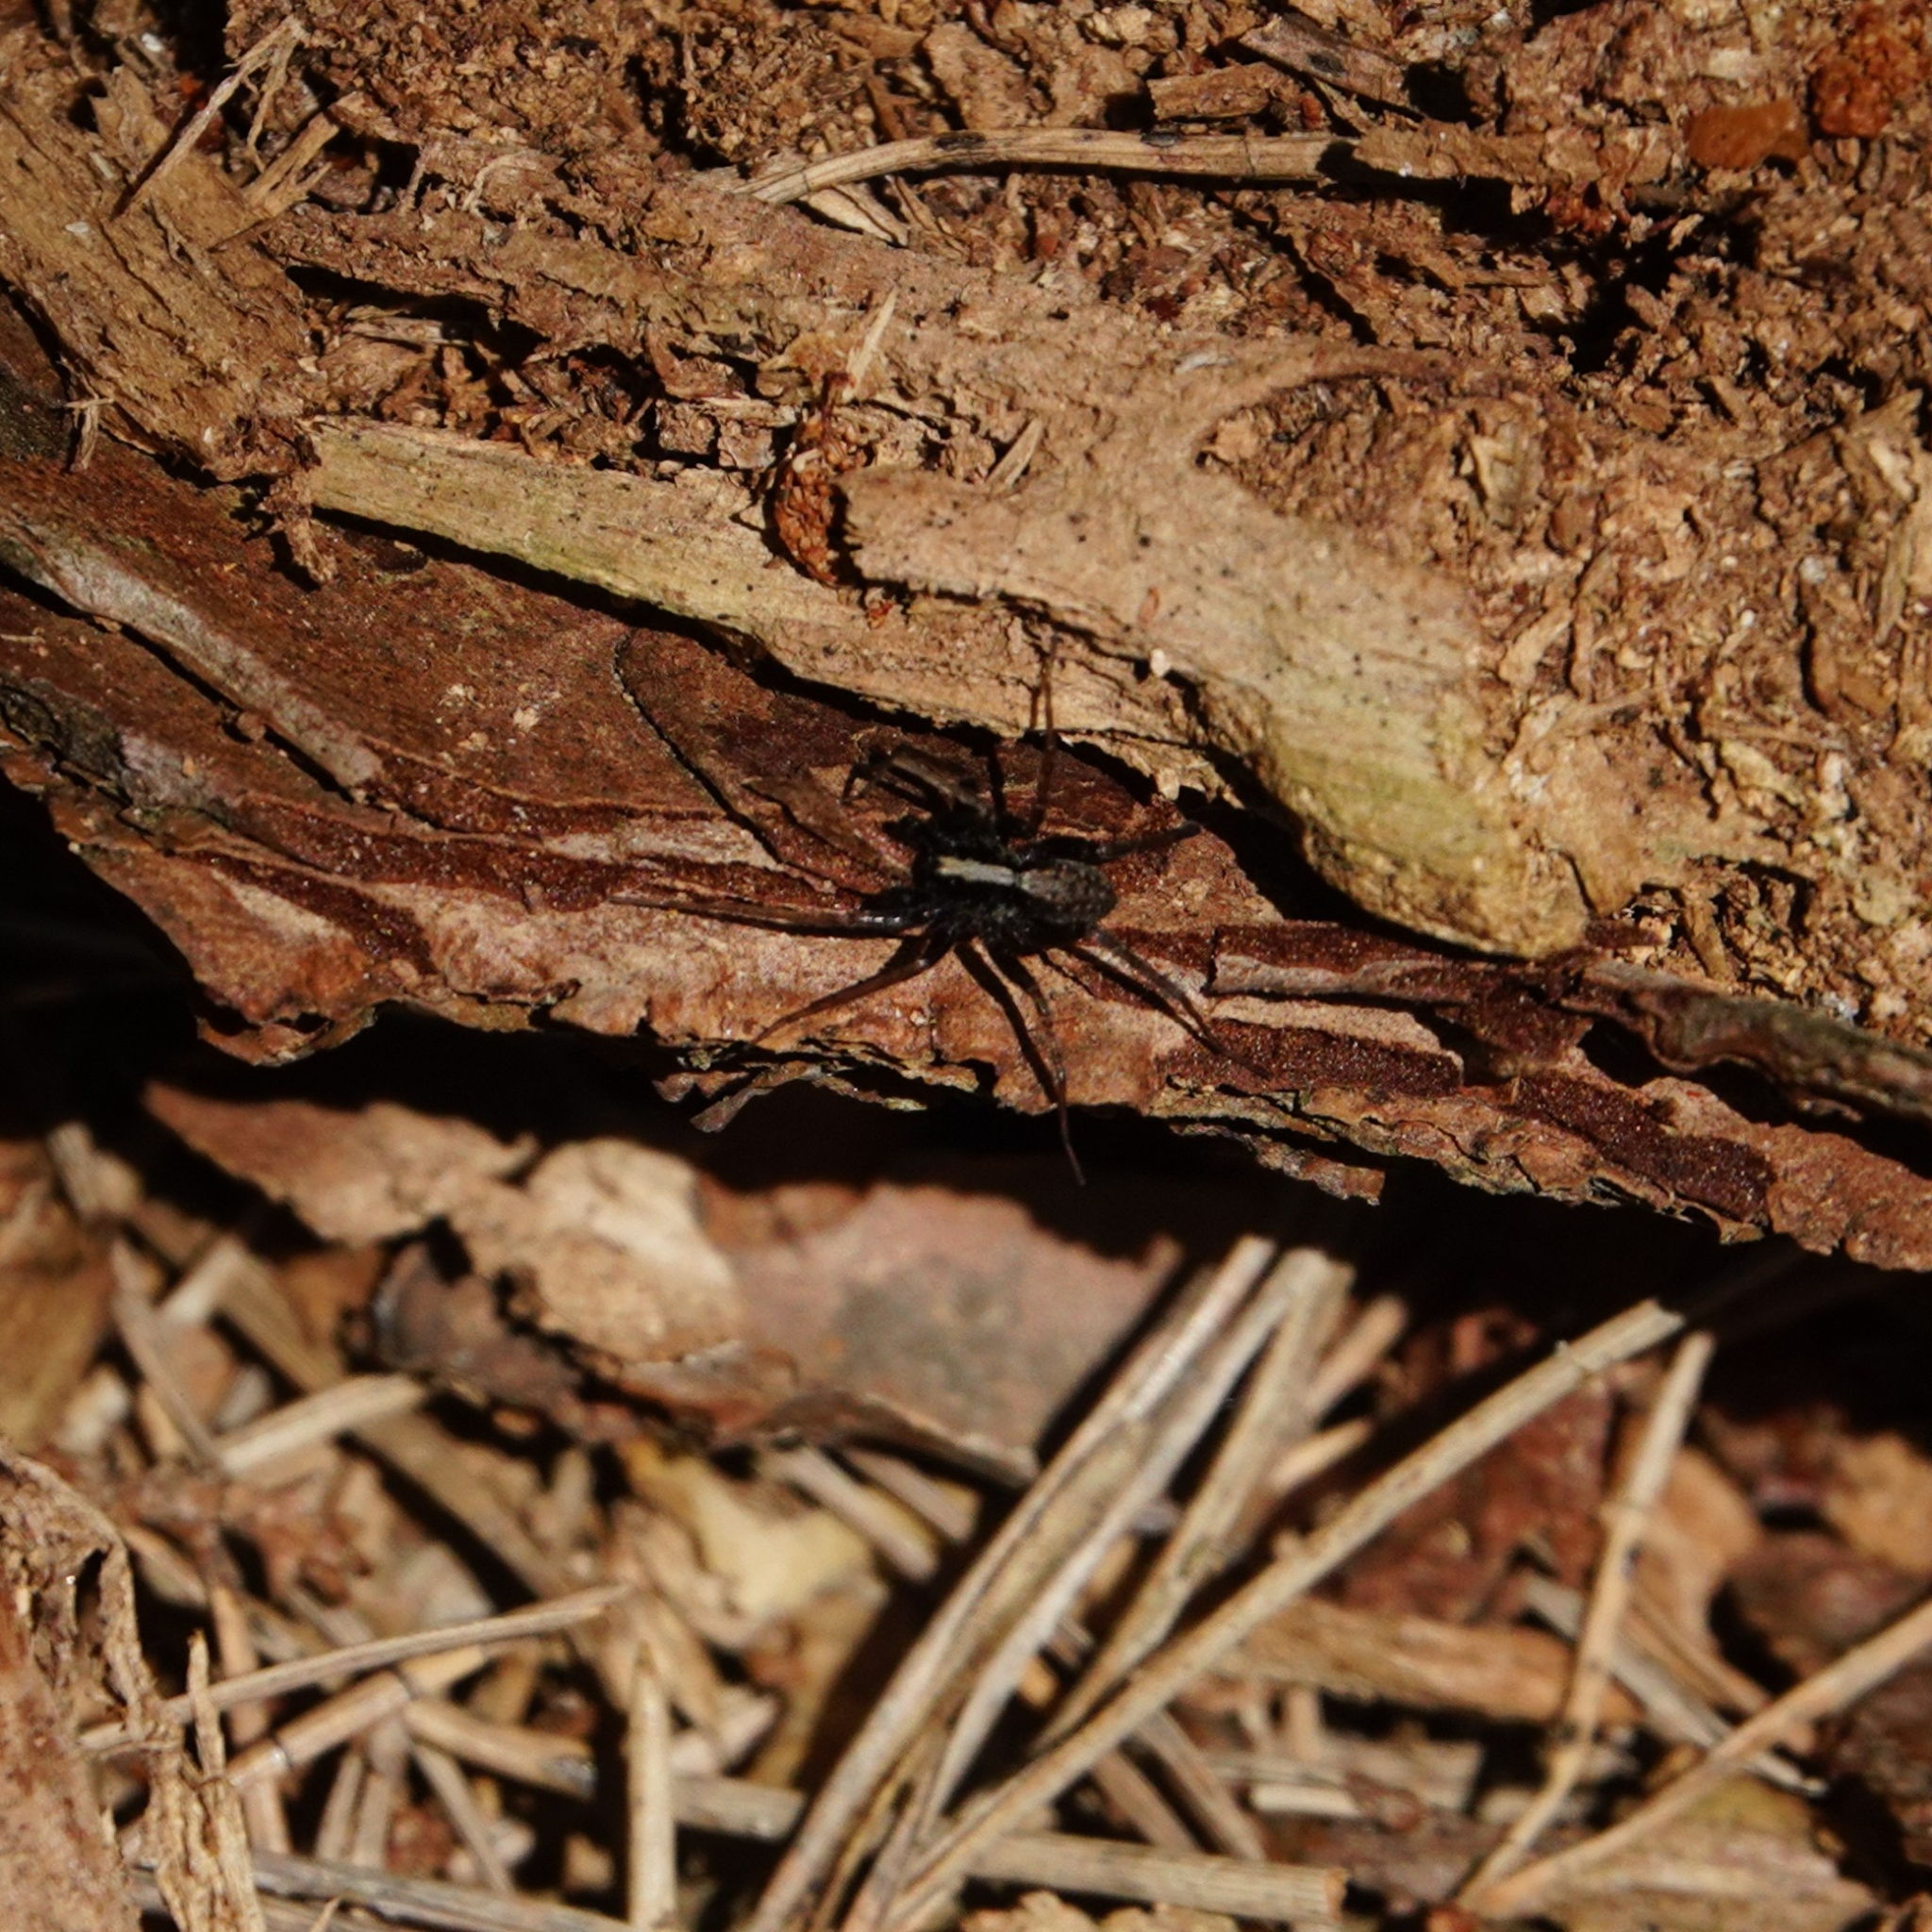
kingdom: Animalia
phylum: Arthropoda
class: Arachnida
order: Araneae
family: Lycosidae
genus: Pardosa
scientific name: Pardosa saltans
